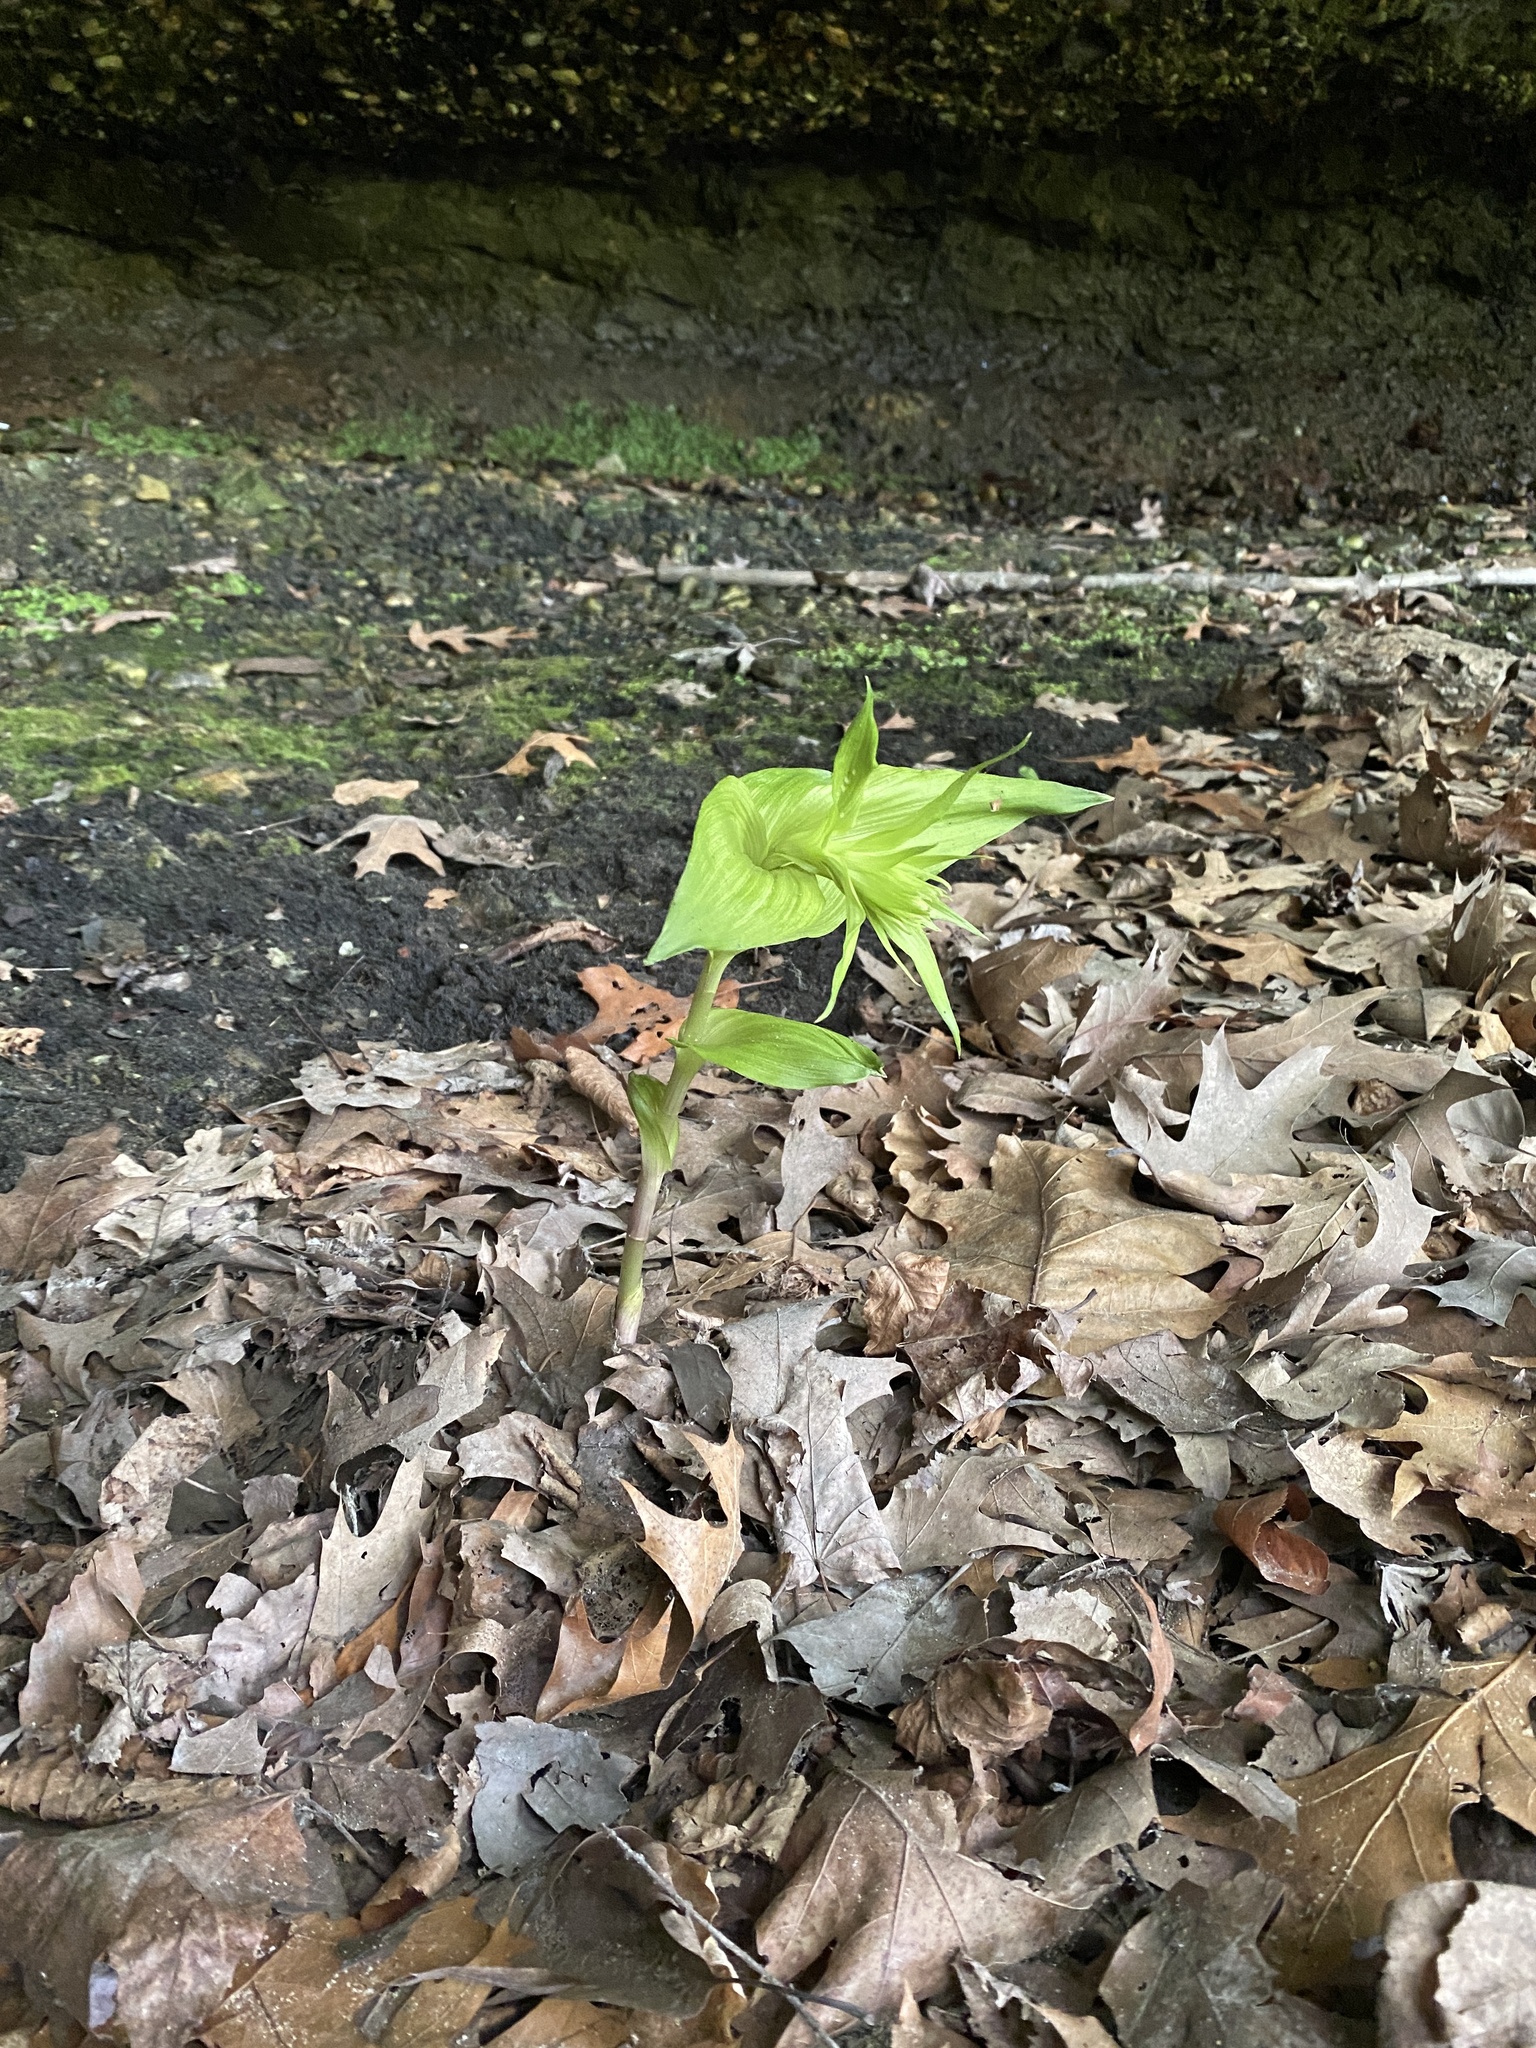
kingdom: Plantae
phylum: Tracheophyta
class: Liliopsida
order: Asparagales
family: Orchidaceae
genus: Epipactis
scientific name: Epipactis helleborine
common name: Broad-leaved helleborine
